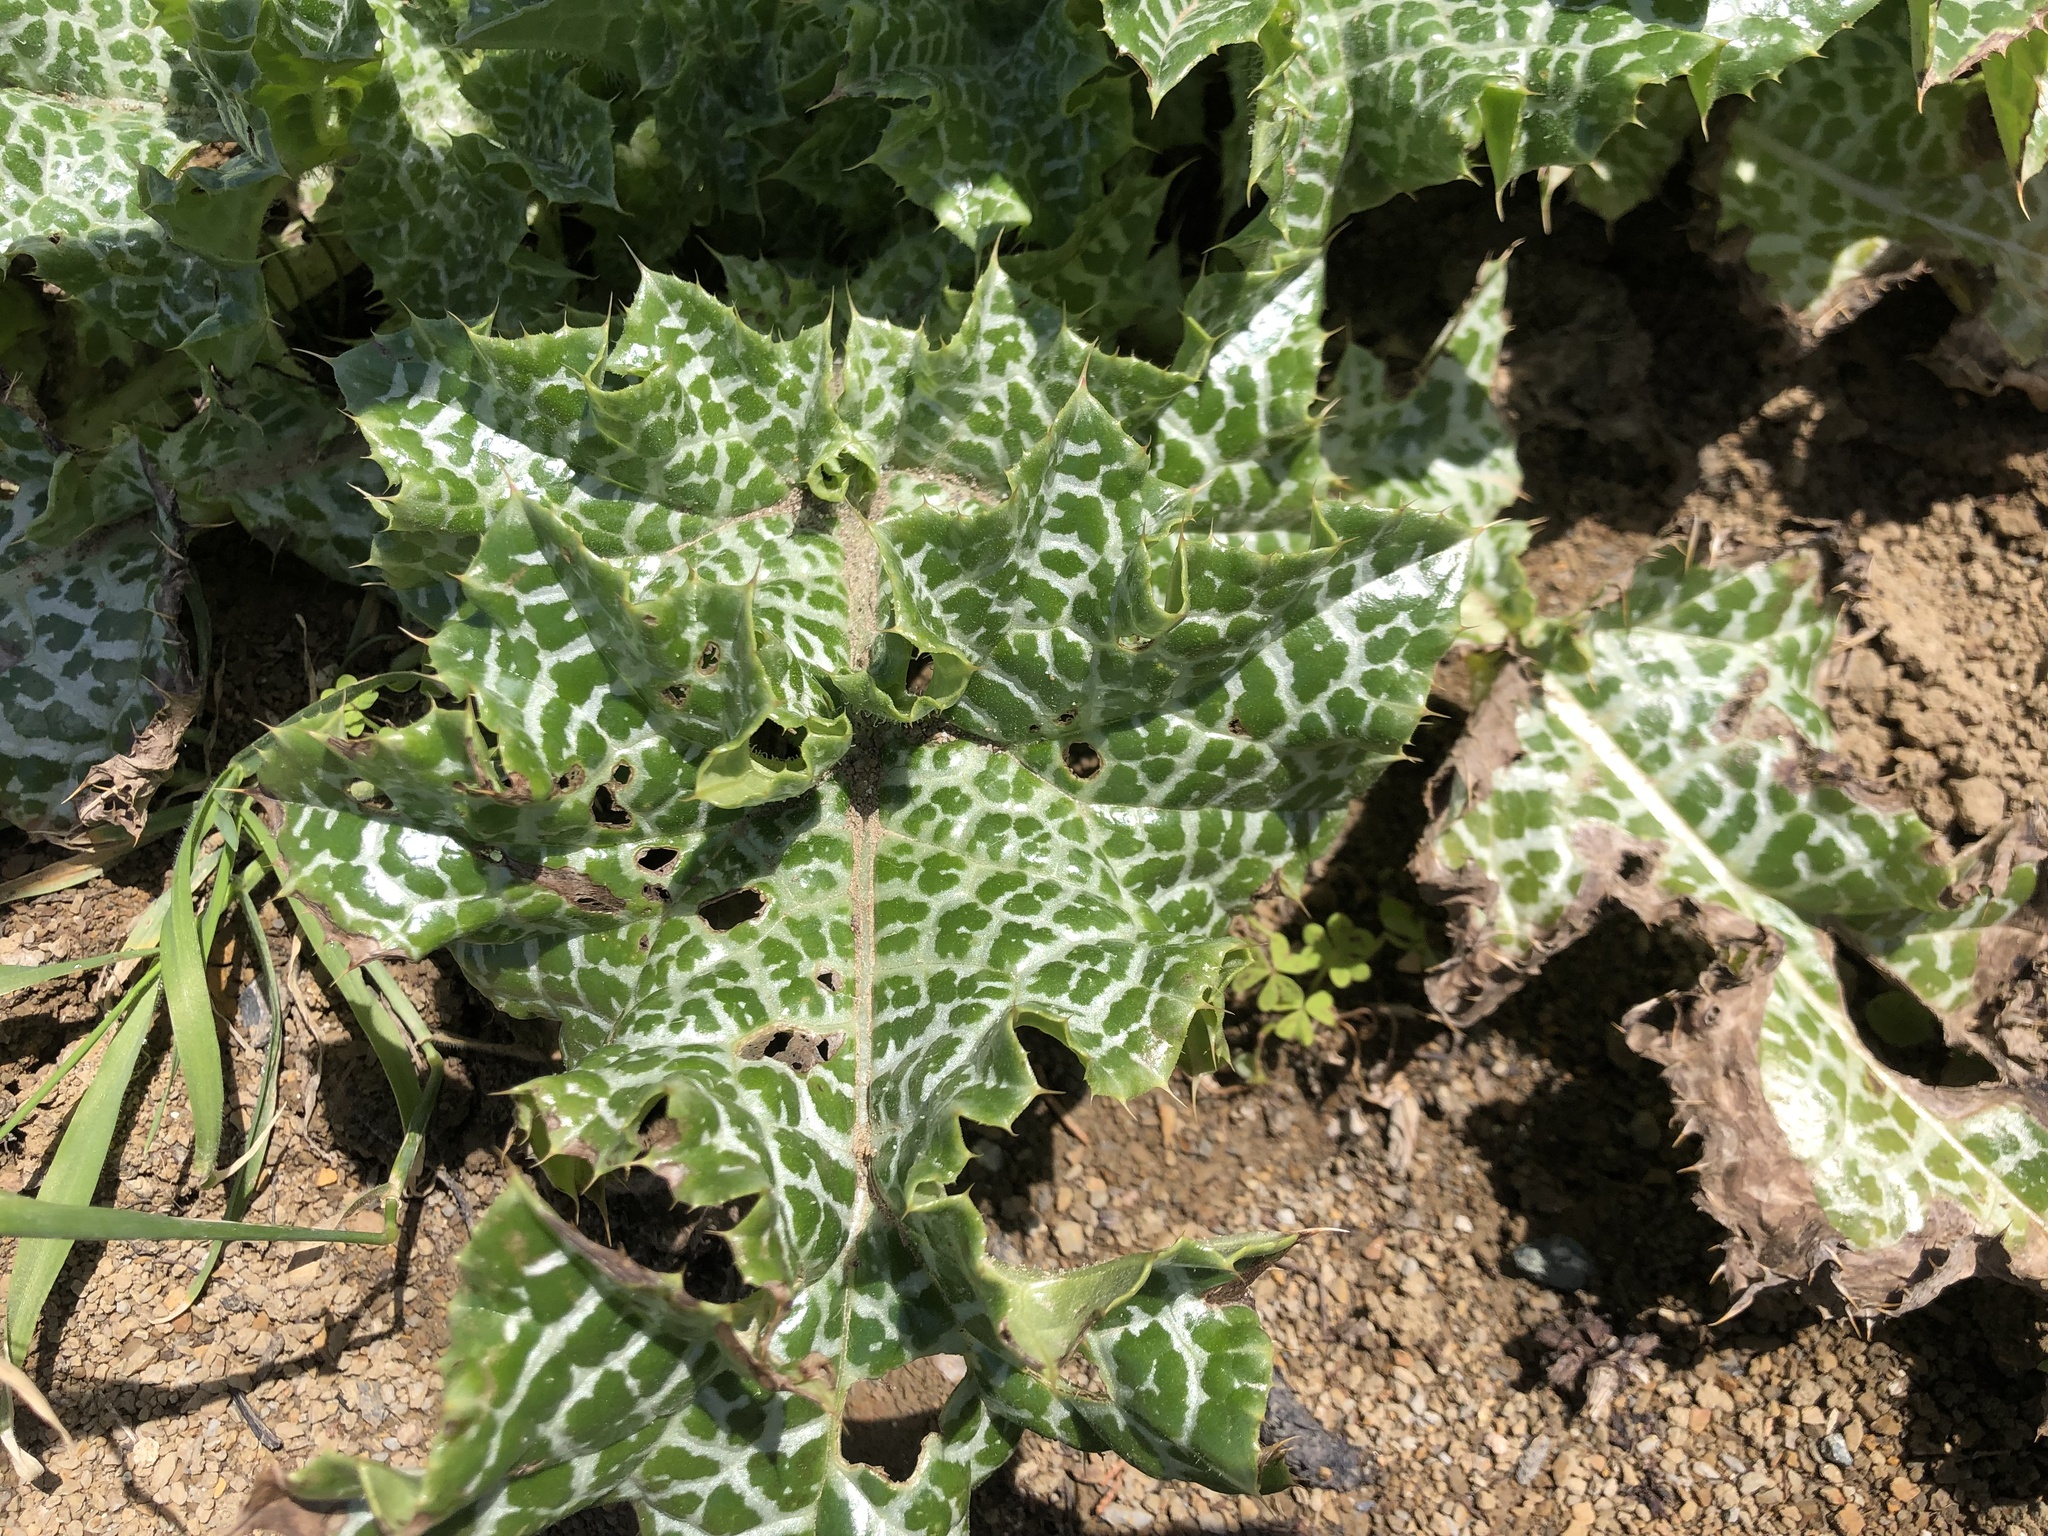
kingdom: Plantae
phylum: Tracheophyta
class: Magnoliopsida
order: Asterales
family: Asteraceae
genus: Silybum
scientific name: Silybum marianum
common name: Milk thistle
